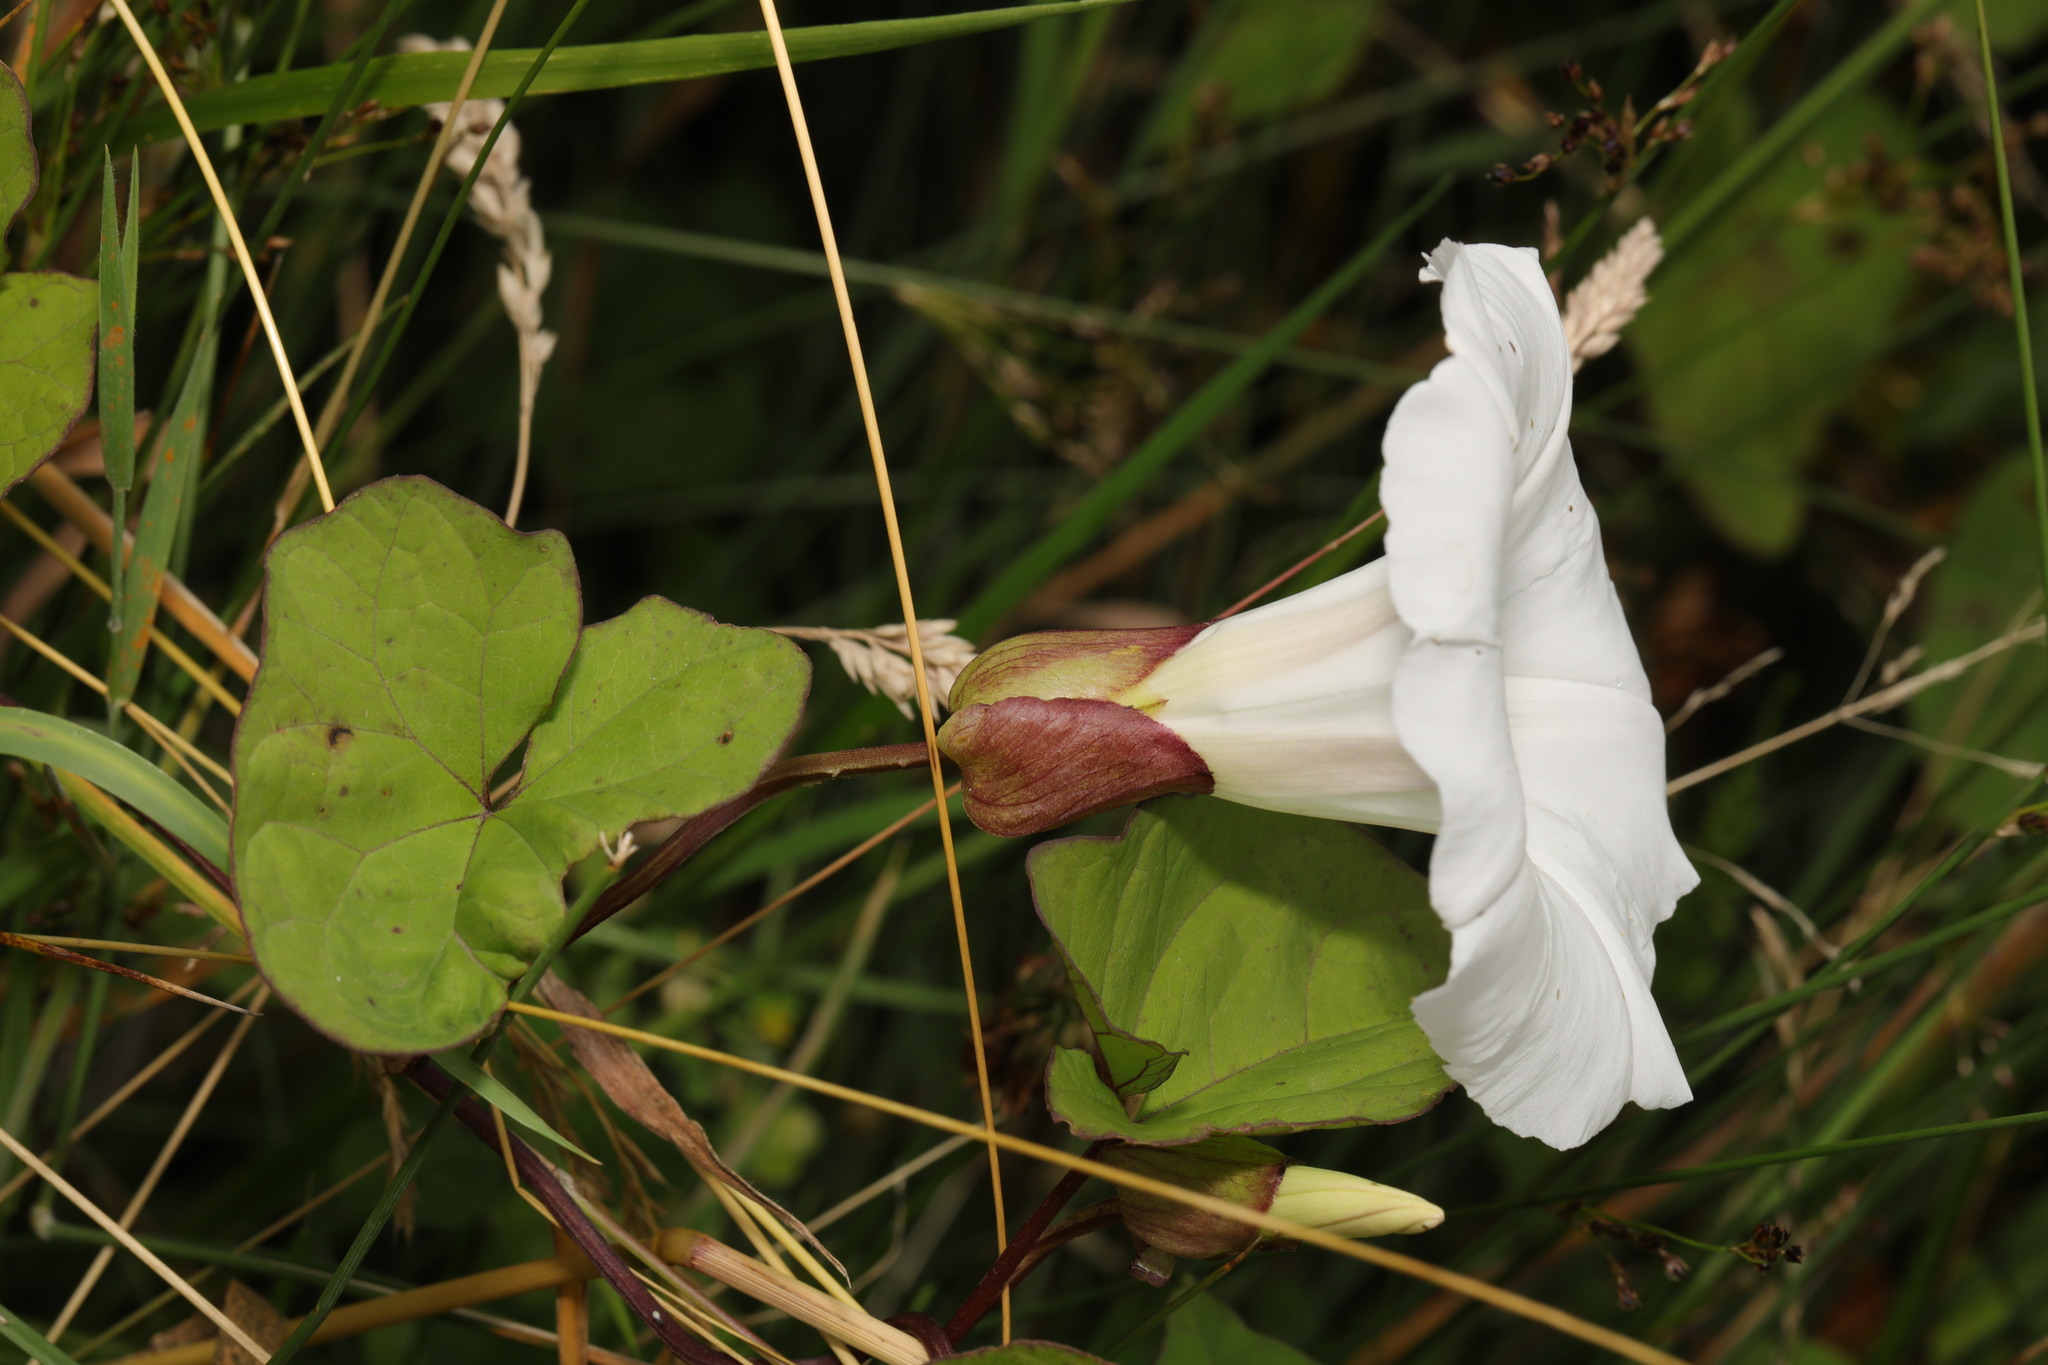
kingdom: Plantae
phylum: Tracheophyta
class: Magnoliopsida
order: Solanales
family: Convolvulaceae
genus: Calystegia
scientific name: Calystegia silvatica
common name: Large bindweed
